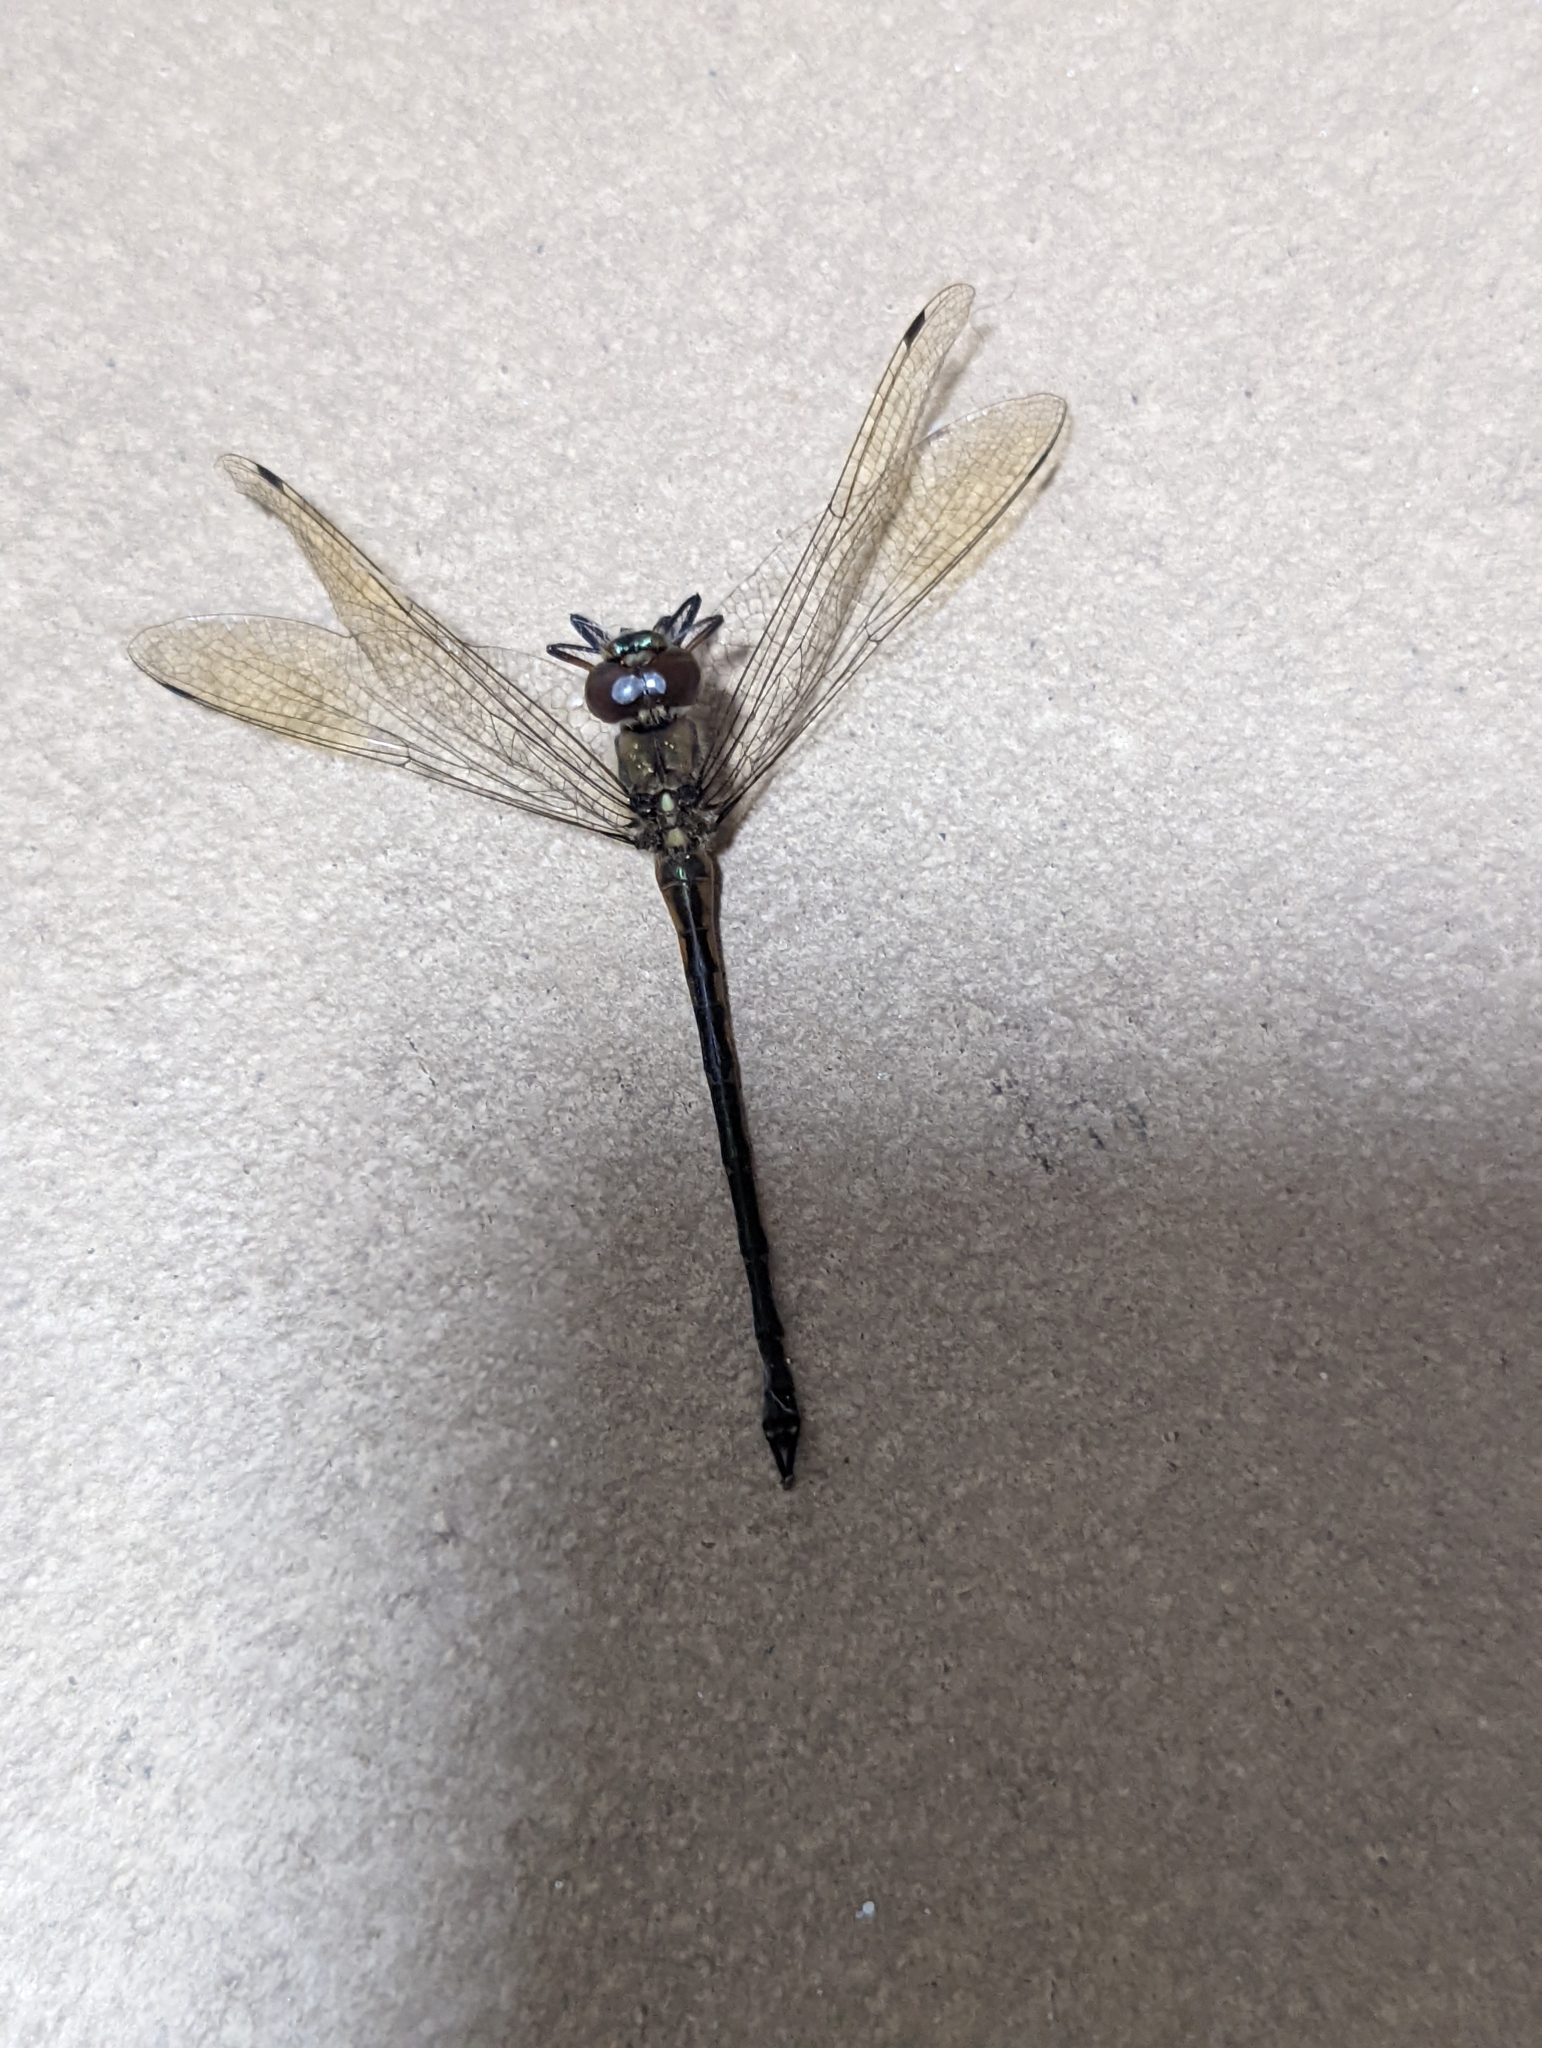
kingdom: Animalia
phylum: Arthropoda
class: Insecta
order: Odonata
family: Corduliidae
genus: Hemicordulia
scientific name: Hemicordulia australiae
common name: Sentry dragonfly
